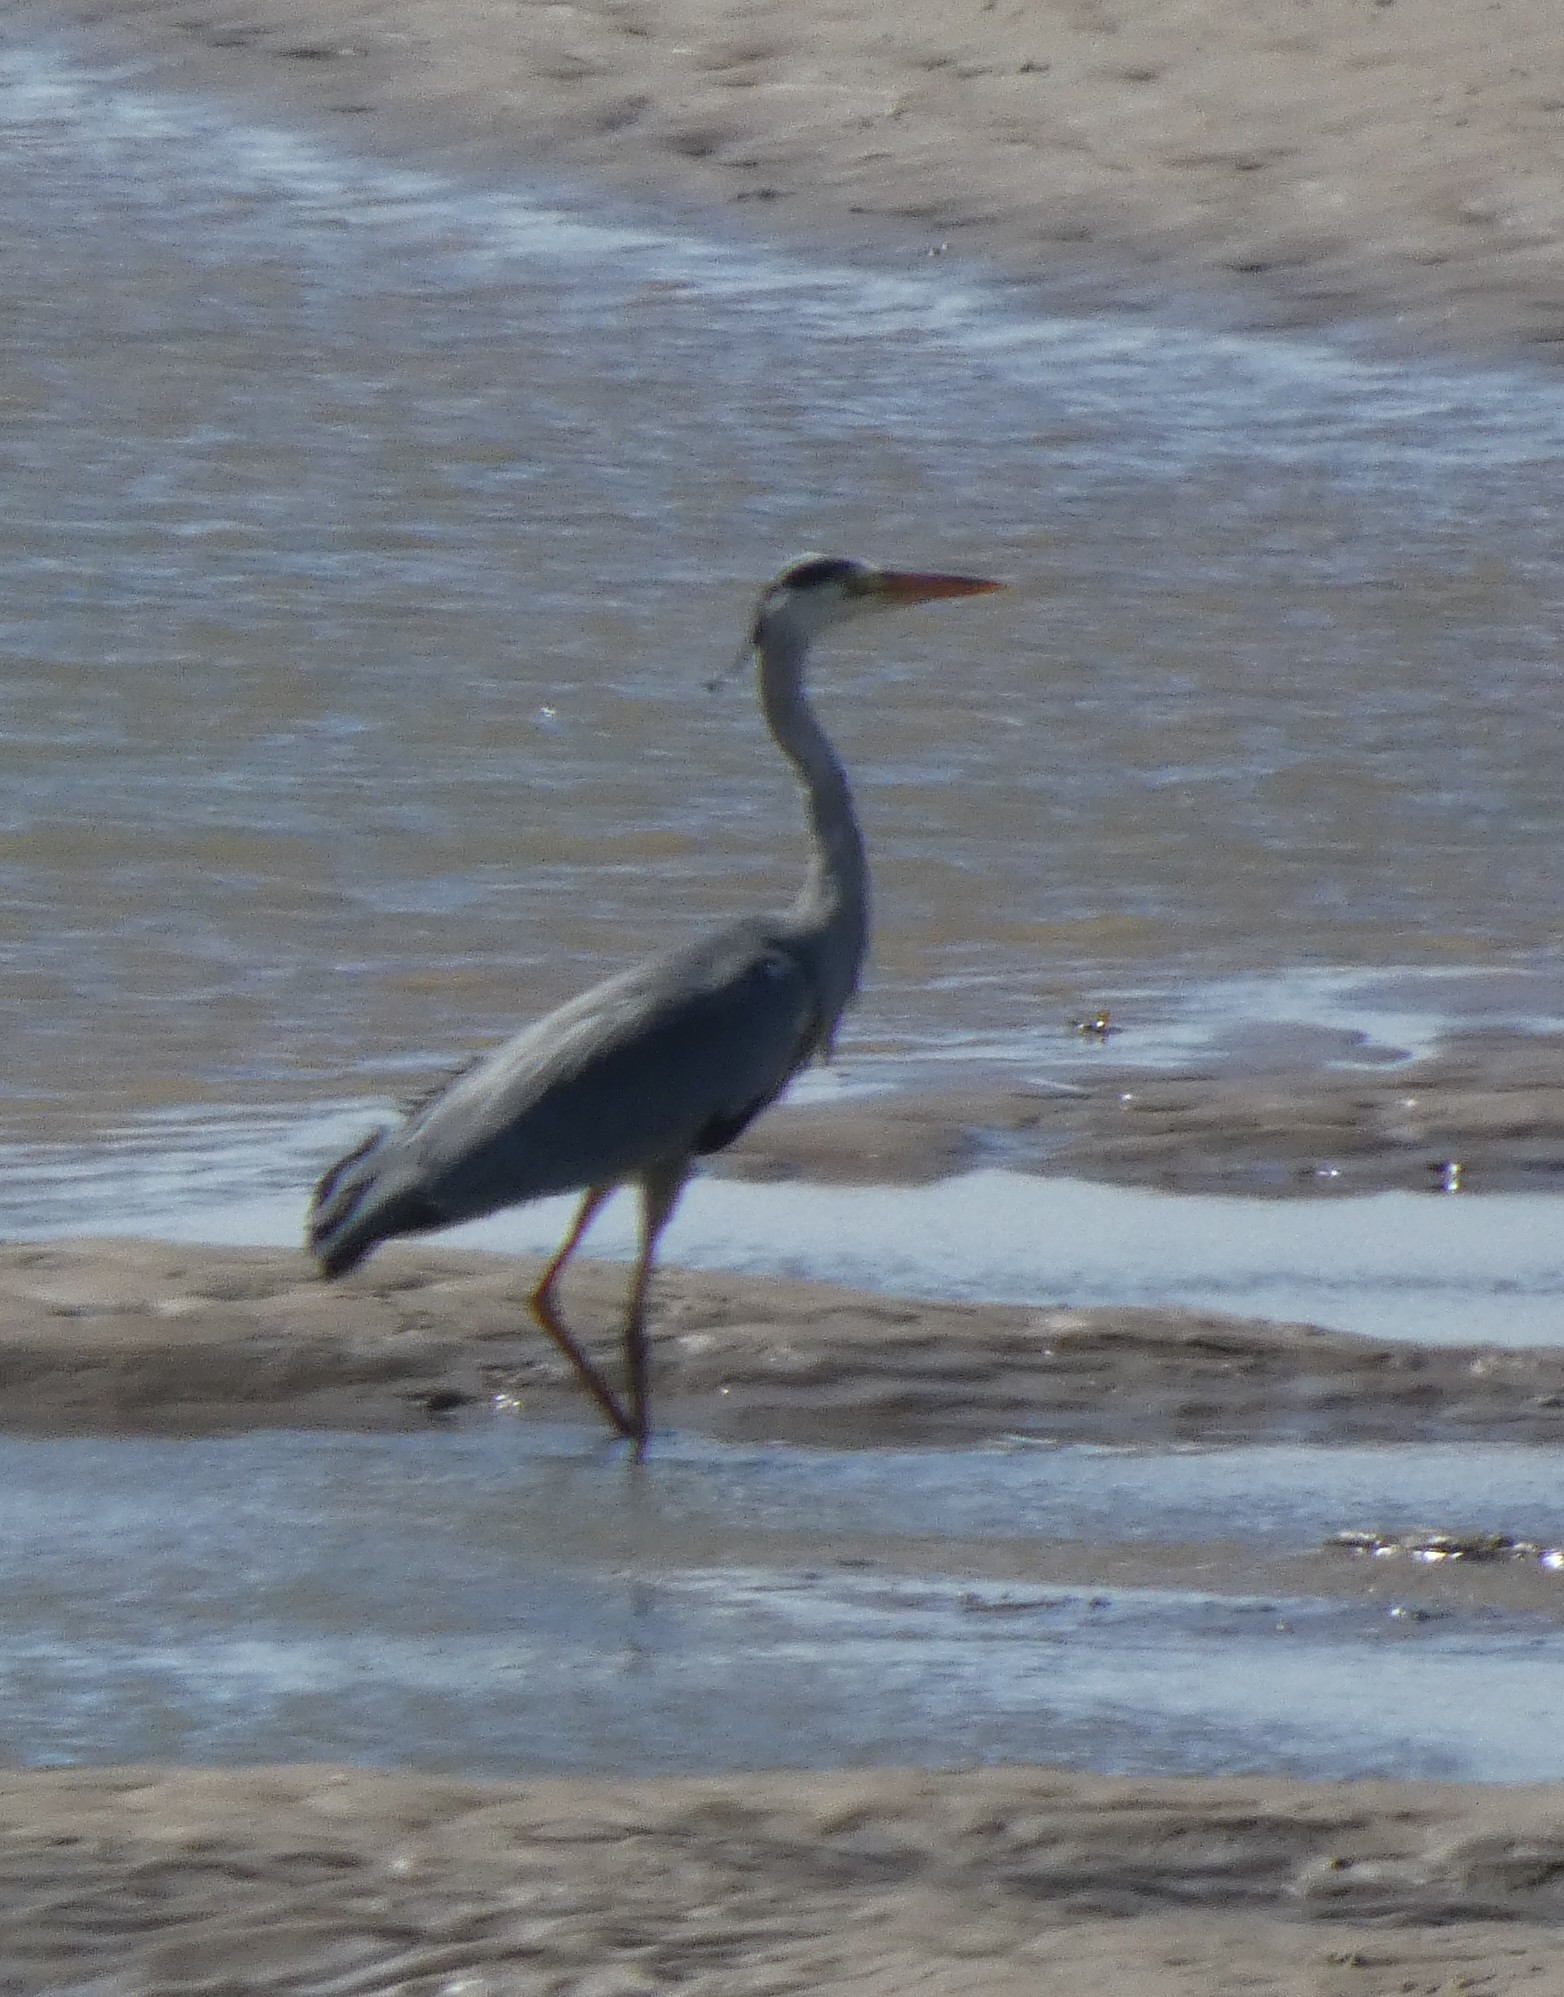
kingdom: Animalia
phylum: Chordata
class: Aves
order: Pelecaniformes
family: Ardeidae
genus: Ardea
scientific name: Ardea cinerea
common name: Grey heron
